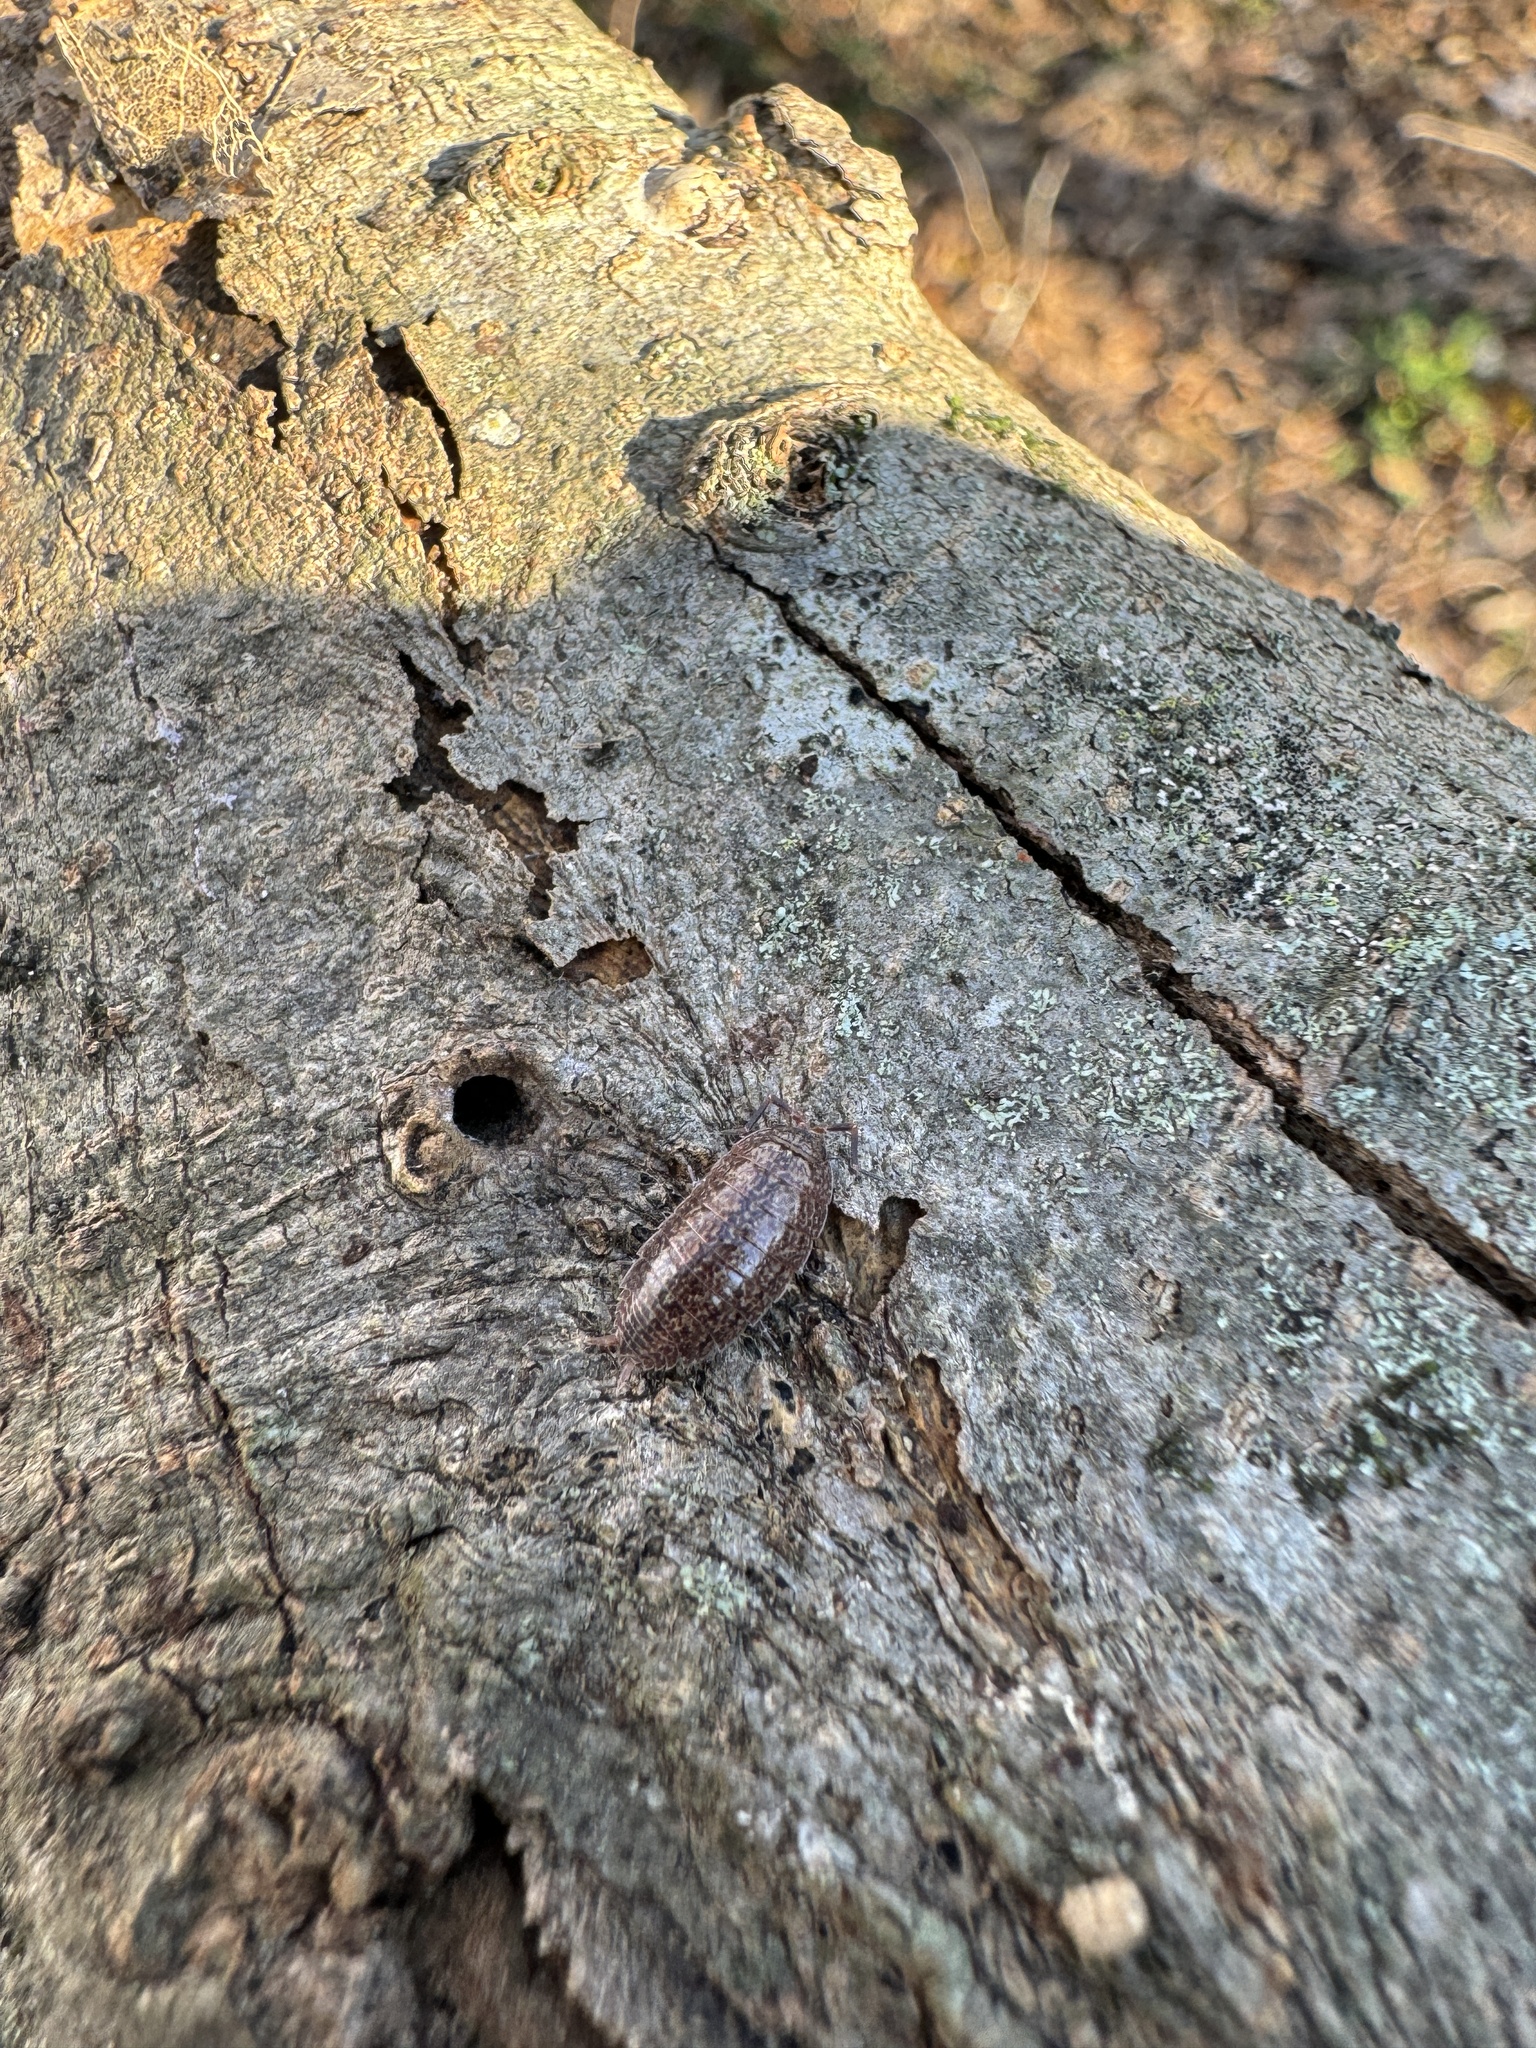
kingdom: Animalia
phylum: Arthropoda
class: Malacostraca
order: Isopoda
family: Porcellionidae
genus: Porcellionides
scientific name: Porcellionides virgatus
